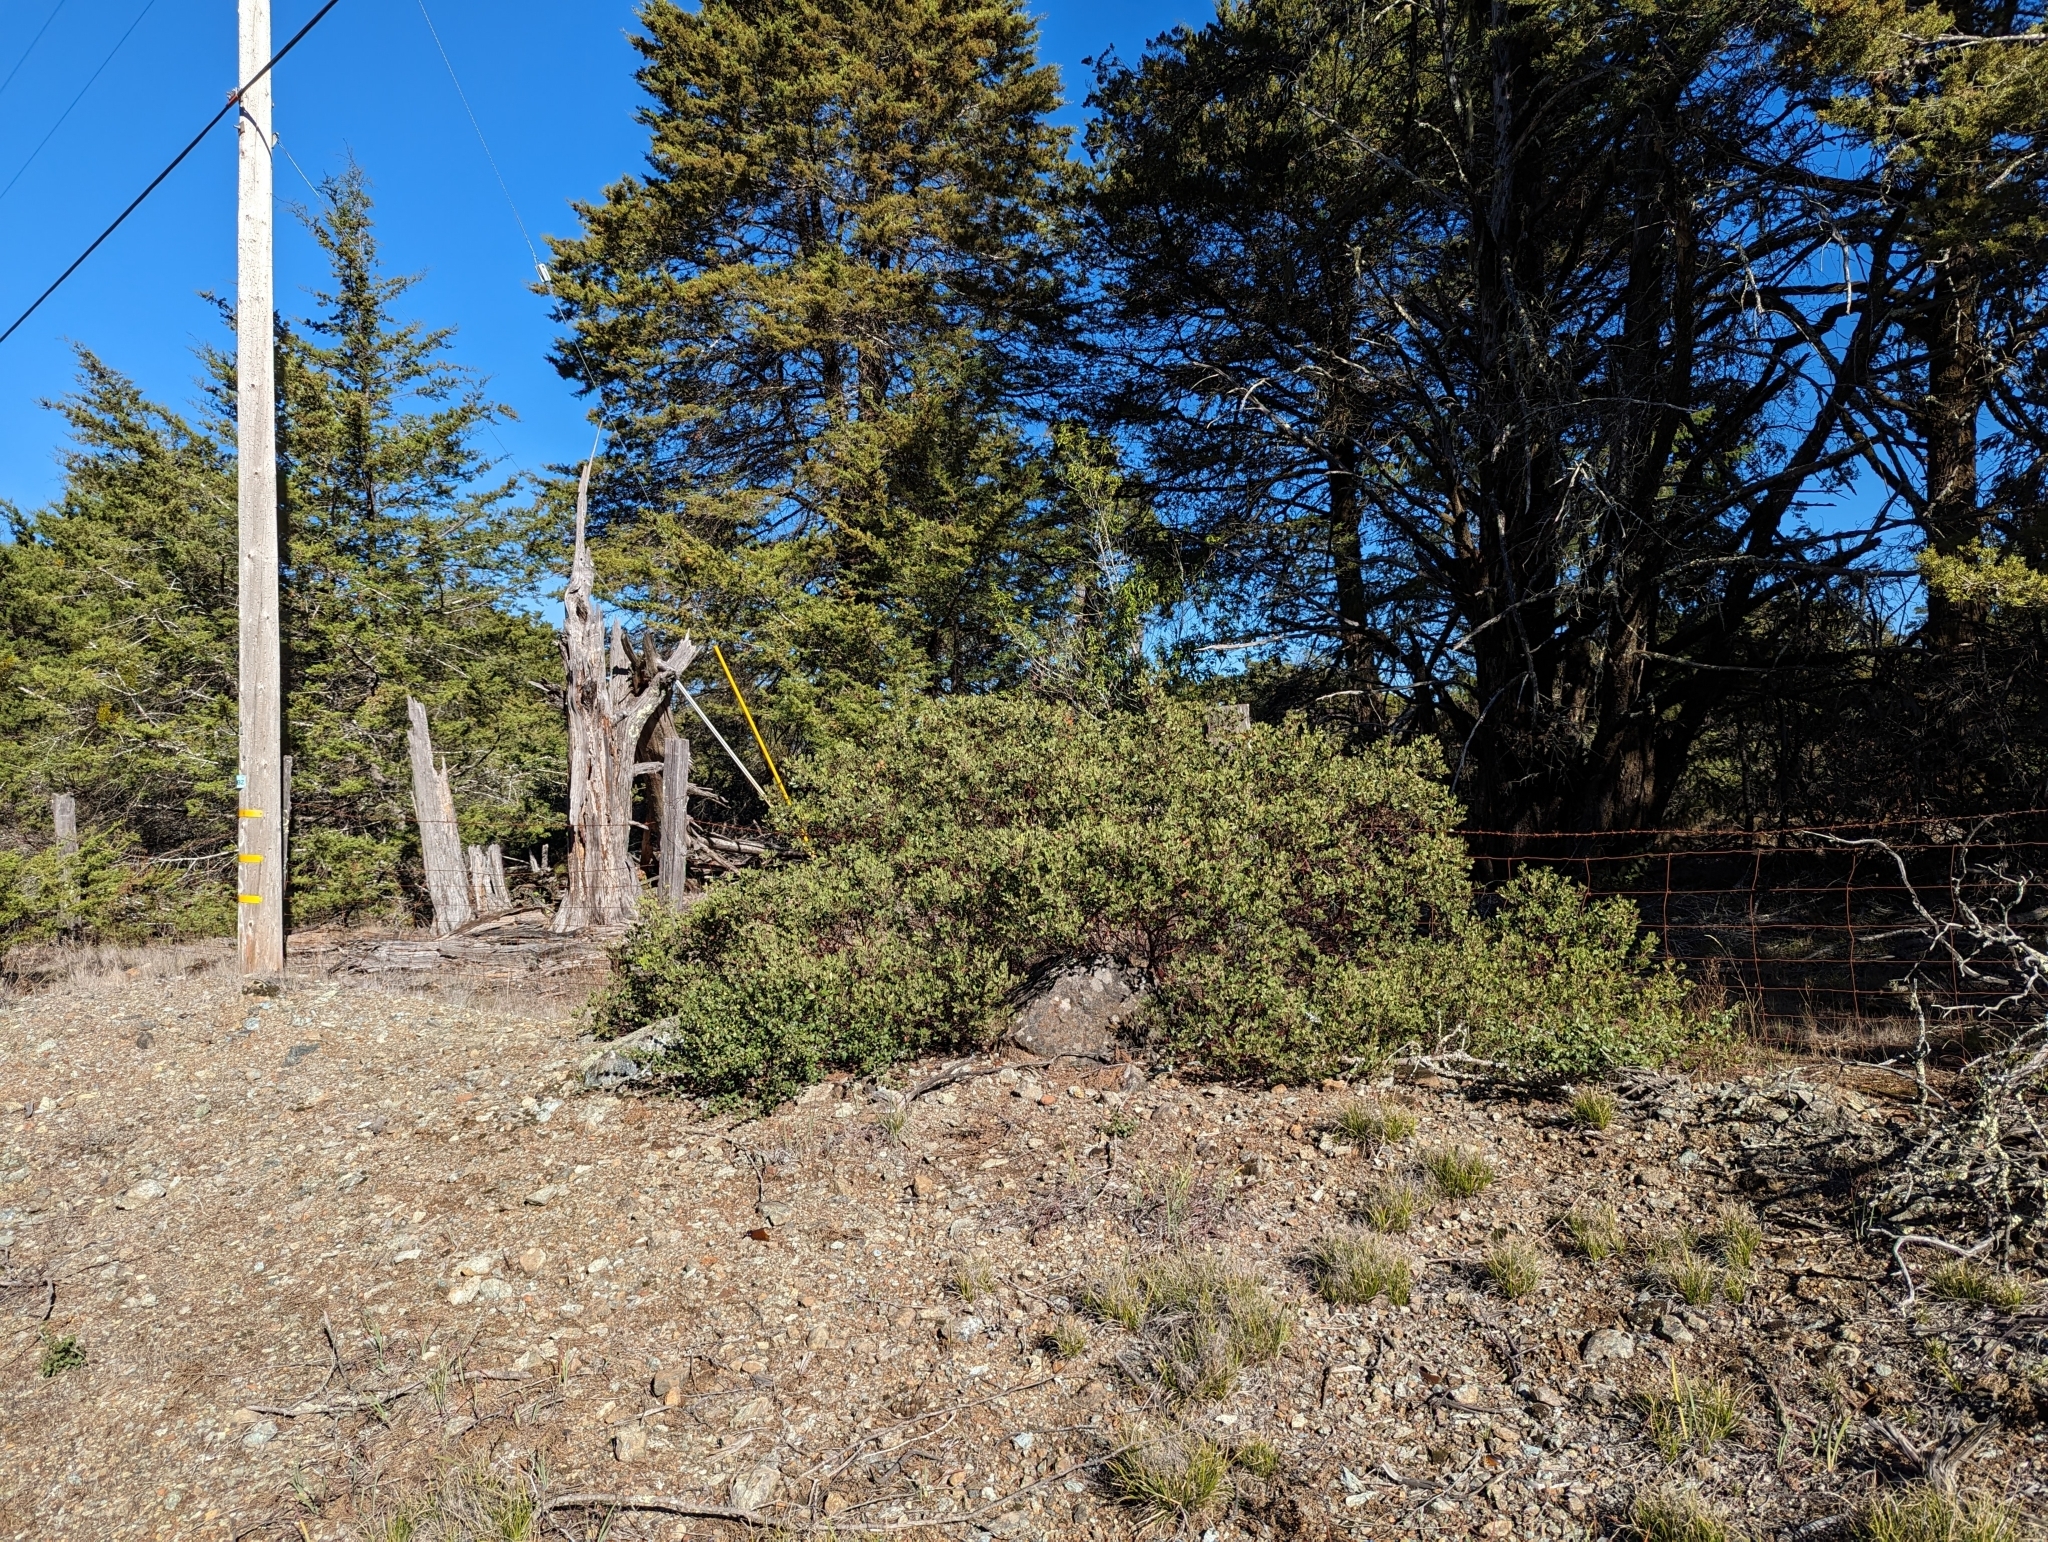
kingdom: Plantae
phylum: Tracheophyta
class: Magnoliopsida
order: Ericales
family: Ericaceae
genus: Arctostaphylos
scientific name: Arctostaphylos bakeri
